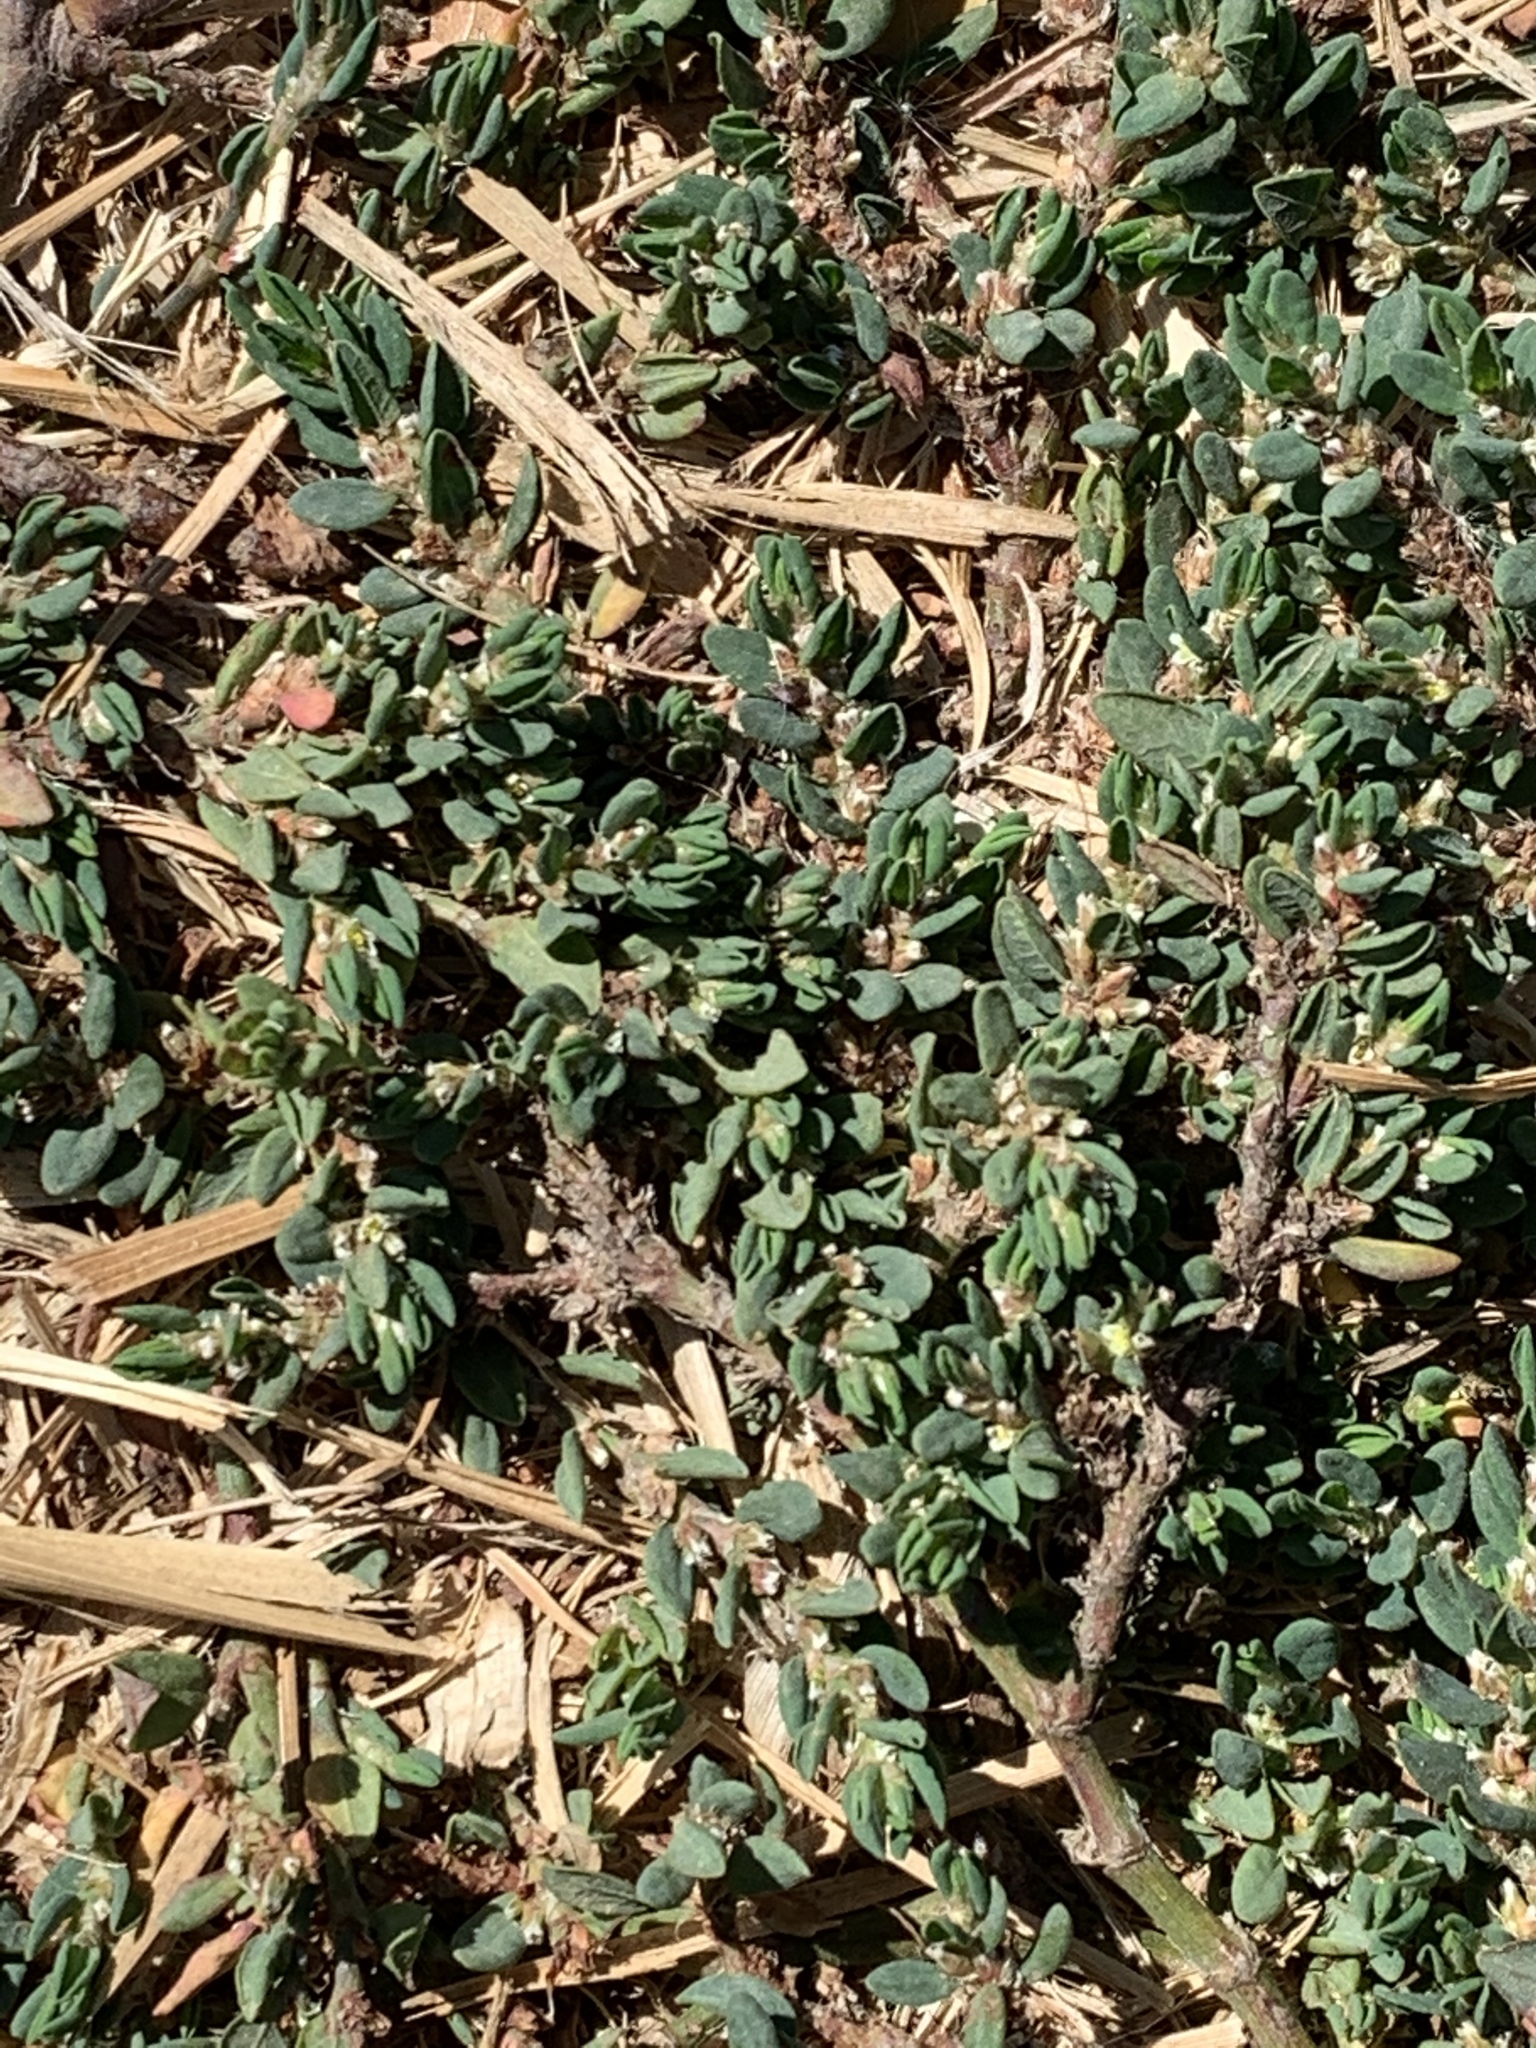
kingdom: Plantae
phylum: Tracheophyta
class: Magnoliopsida
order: Caryophyllales
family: Polygonaceae
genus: Polygonum
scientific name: Polygonum aviculare
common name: Prostrate knotweed
